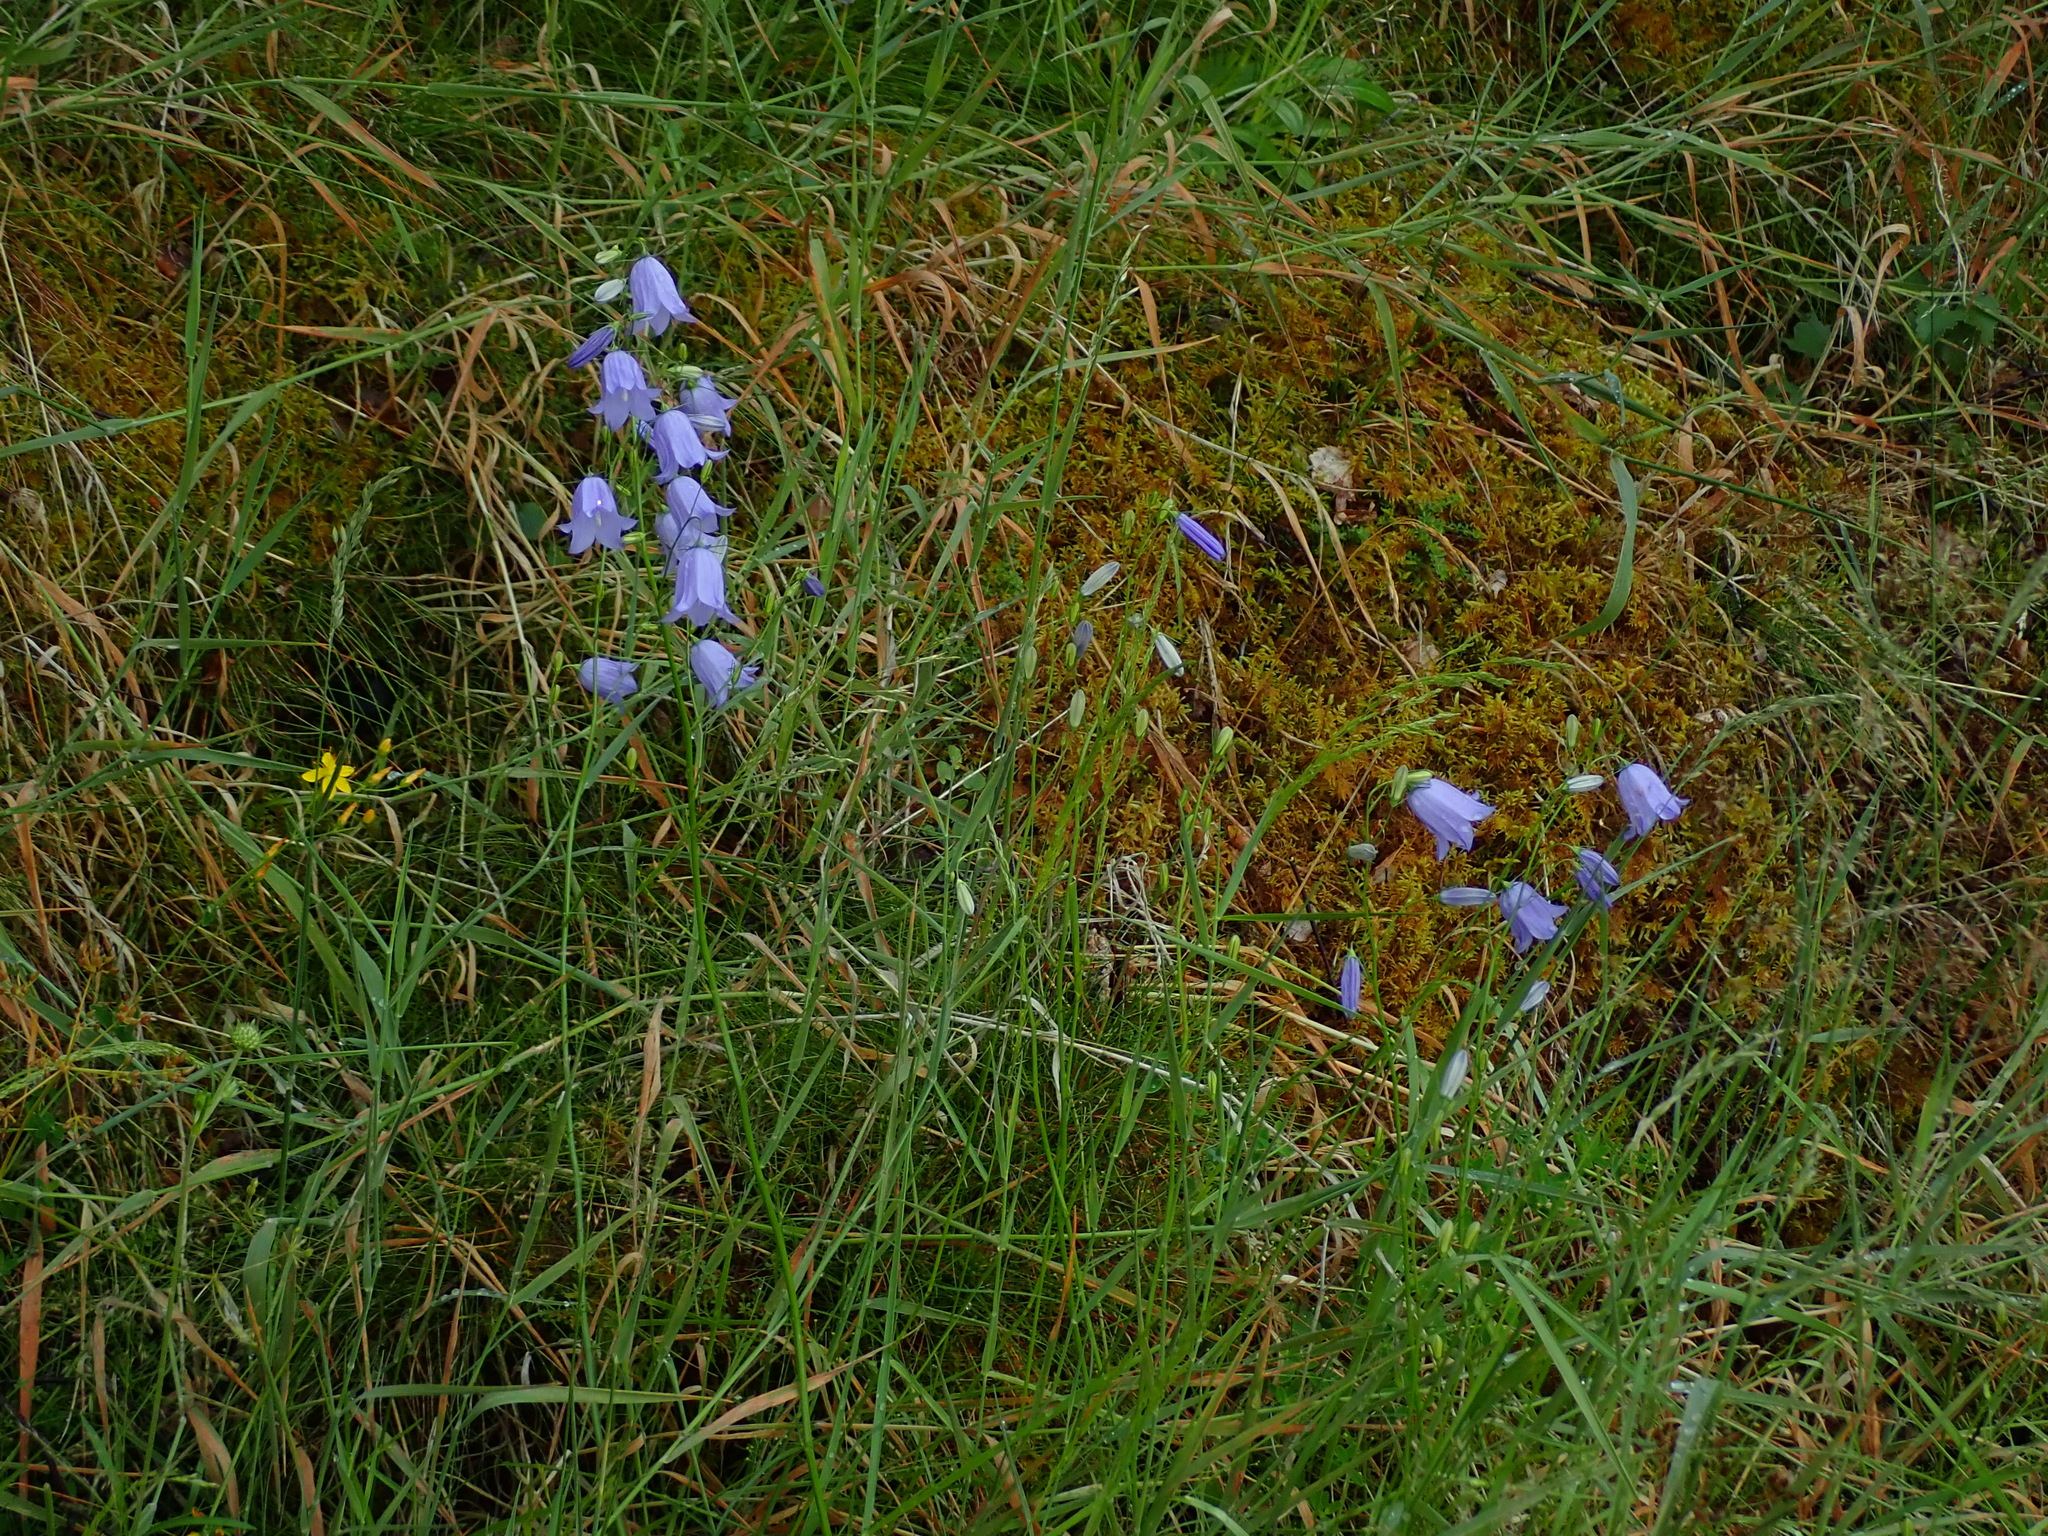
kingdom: Plantae
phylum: Tracheophyta
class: Magnoliopsida
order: Asterales
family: Campanulaceae
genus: Campanula
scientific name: Campanula rotundifolia
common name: Harebell
